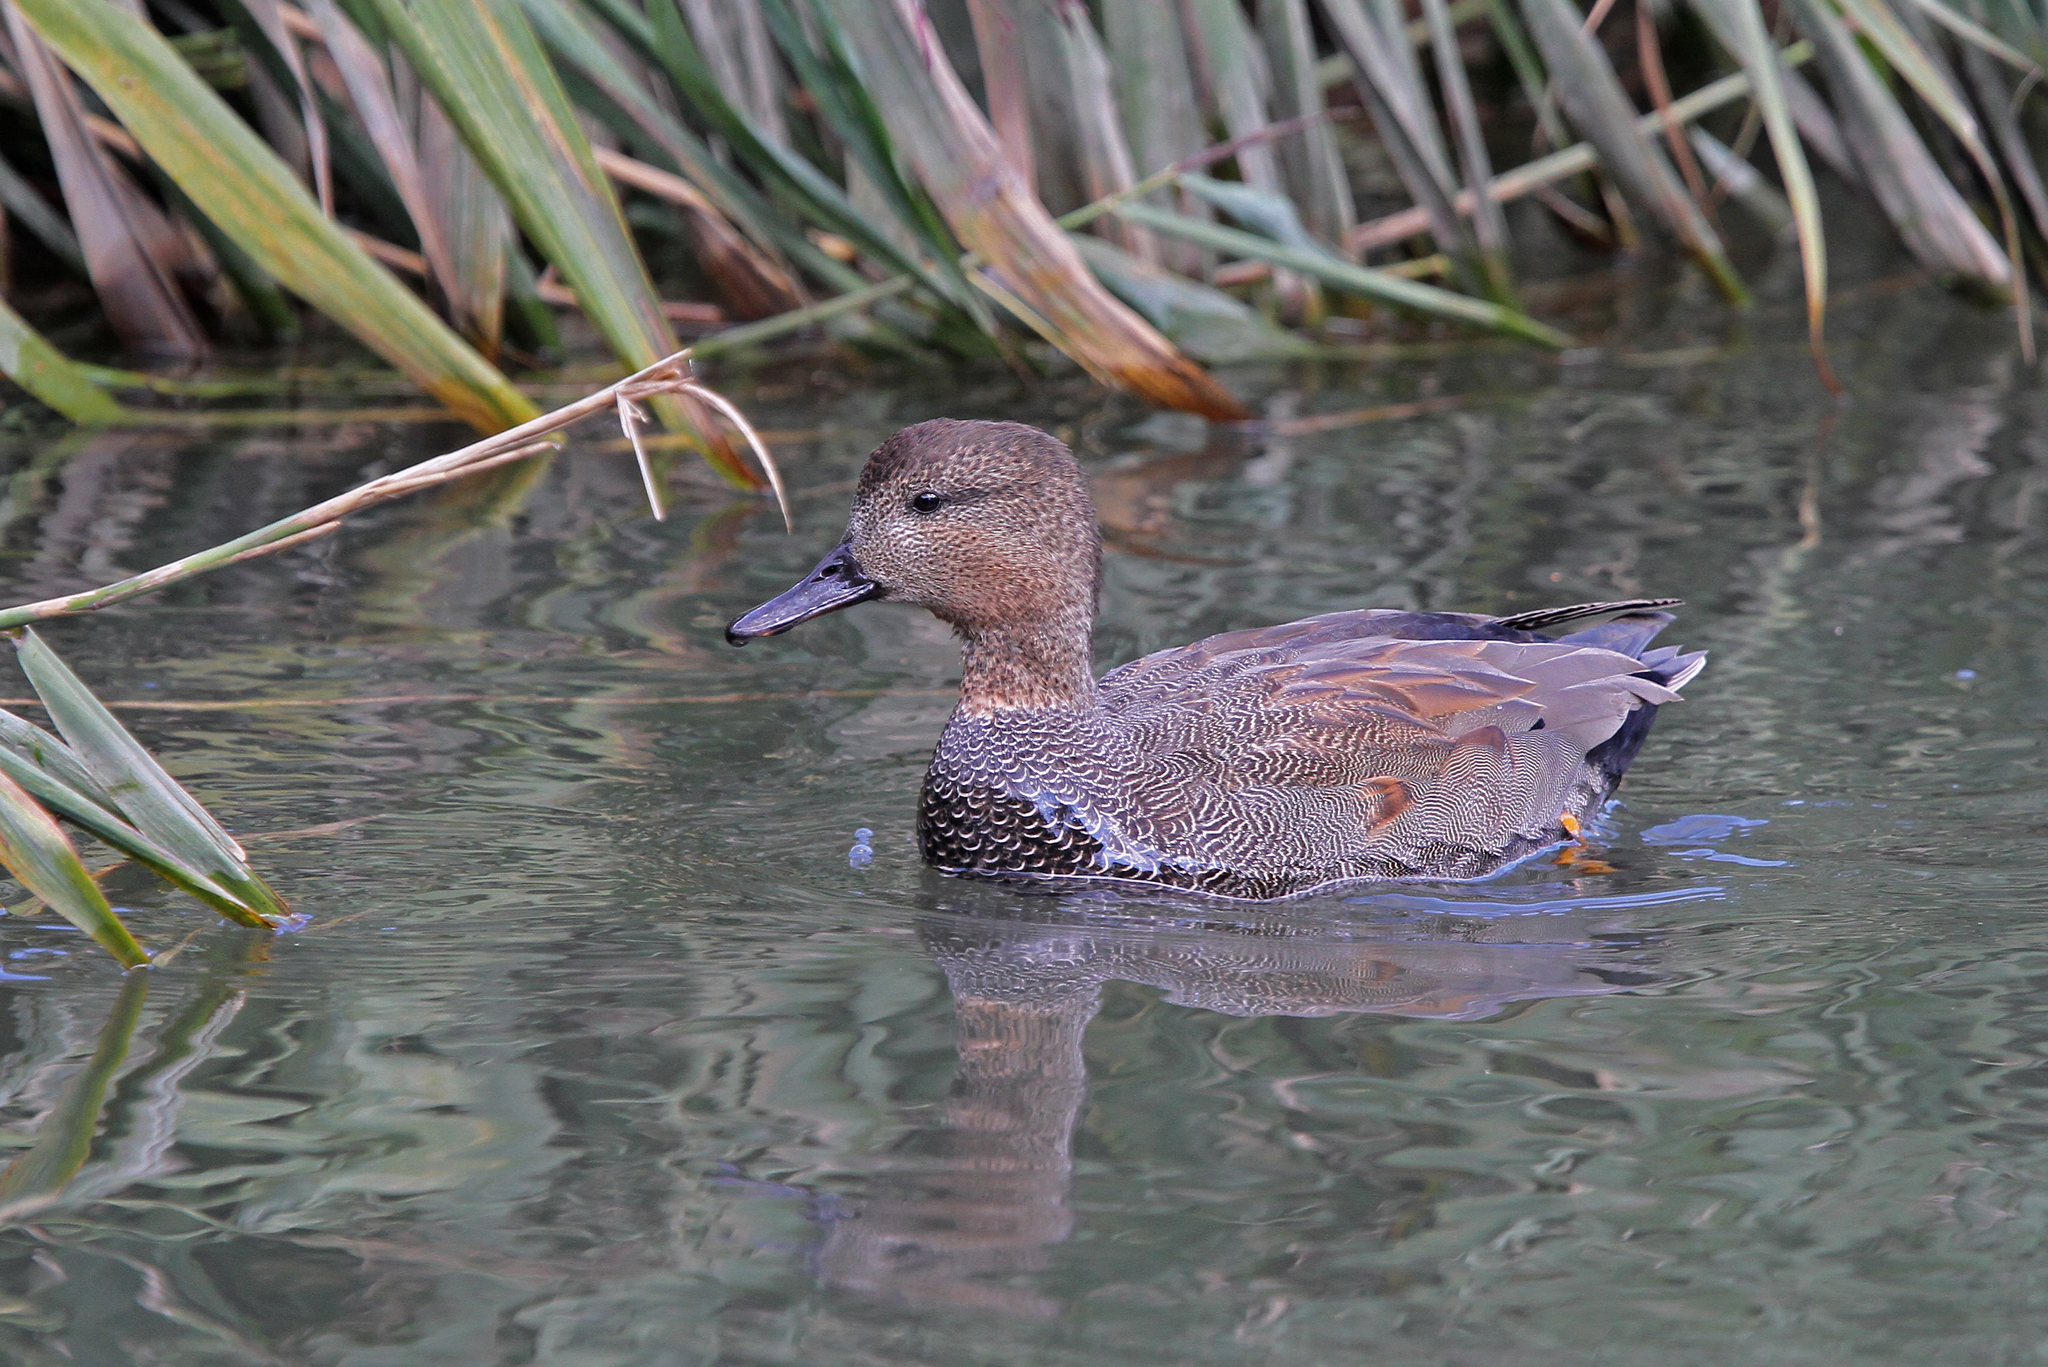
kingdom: Animalia
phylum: Chordata
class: Aves
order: Anseriformes
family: Anatidae
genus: Mareca
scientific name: Mareca strepera
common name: Gadwall
